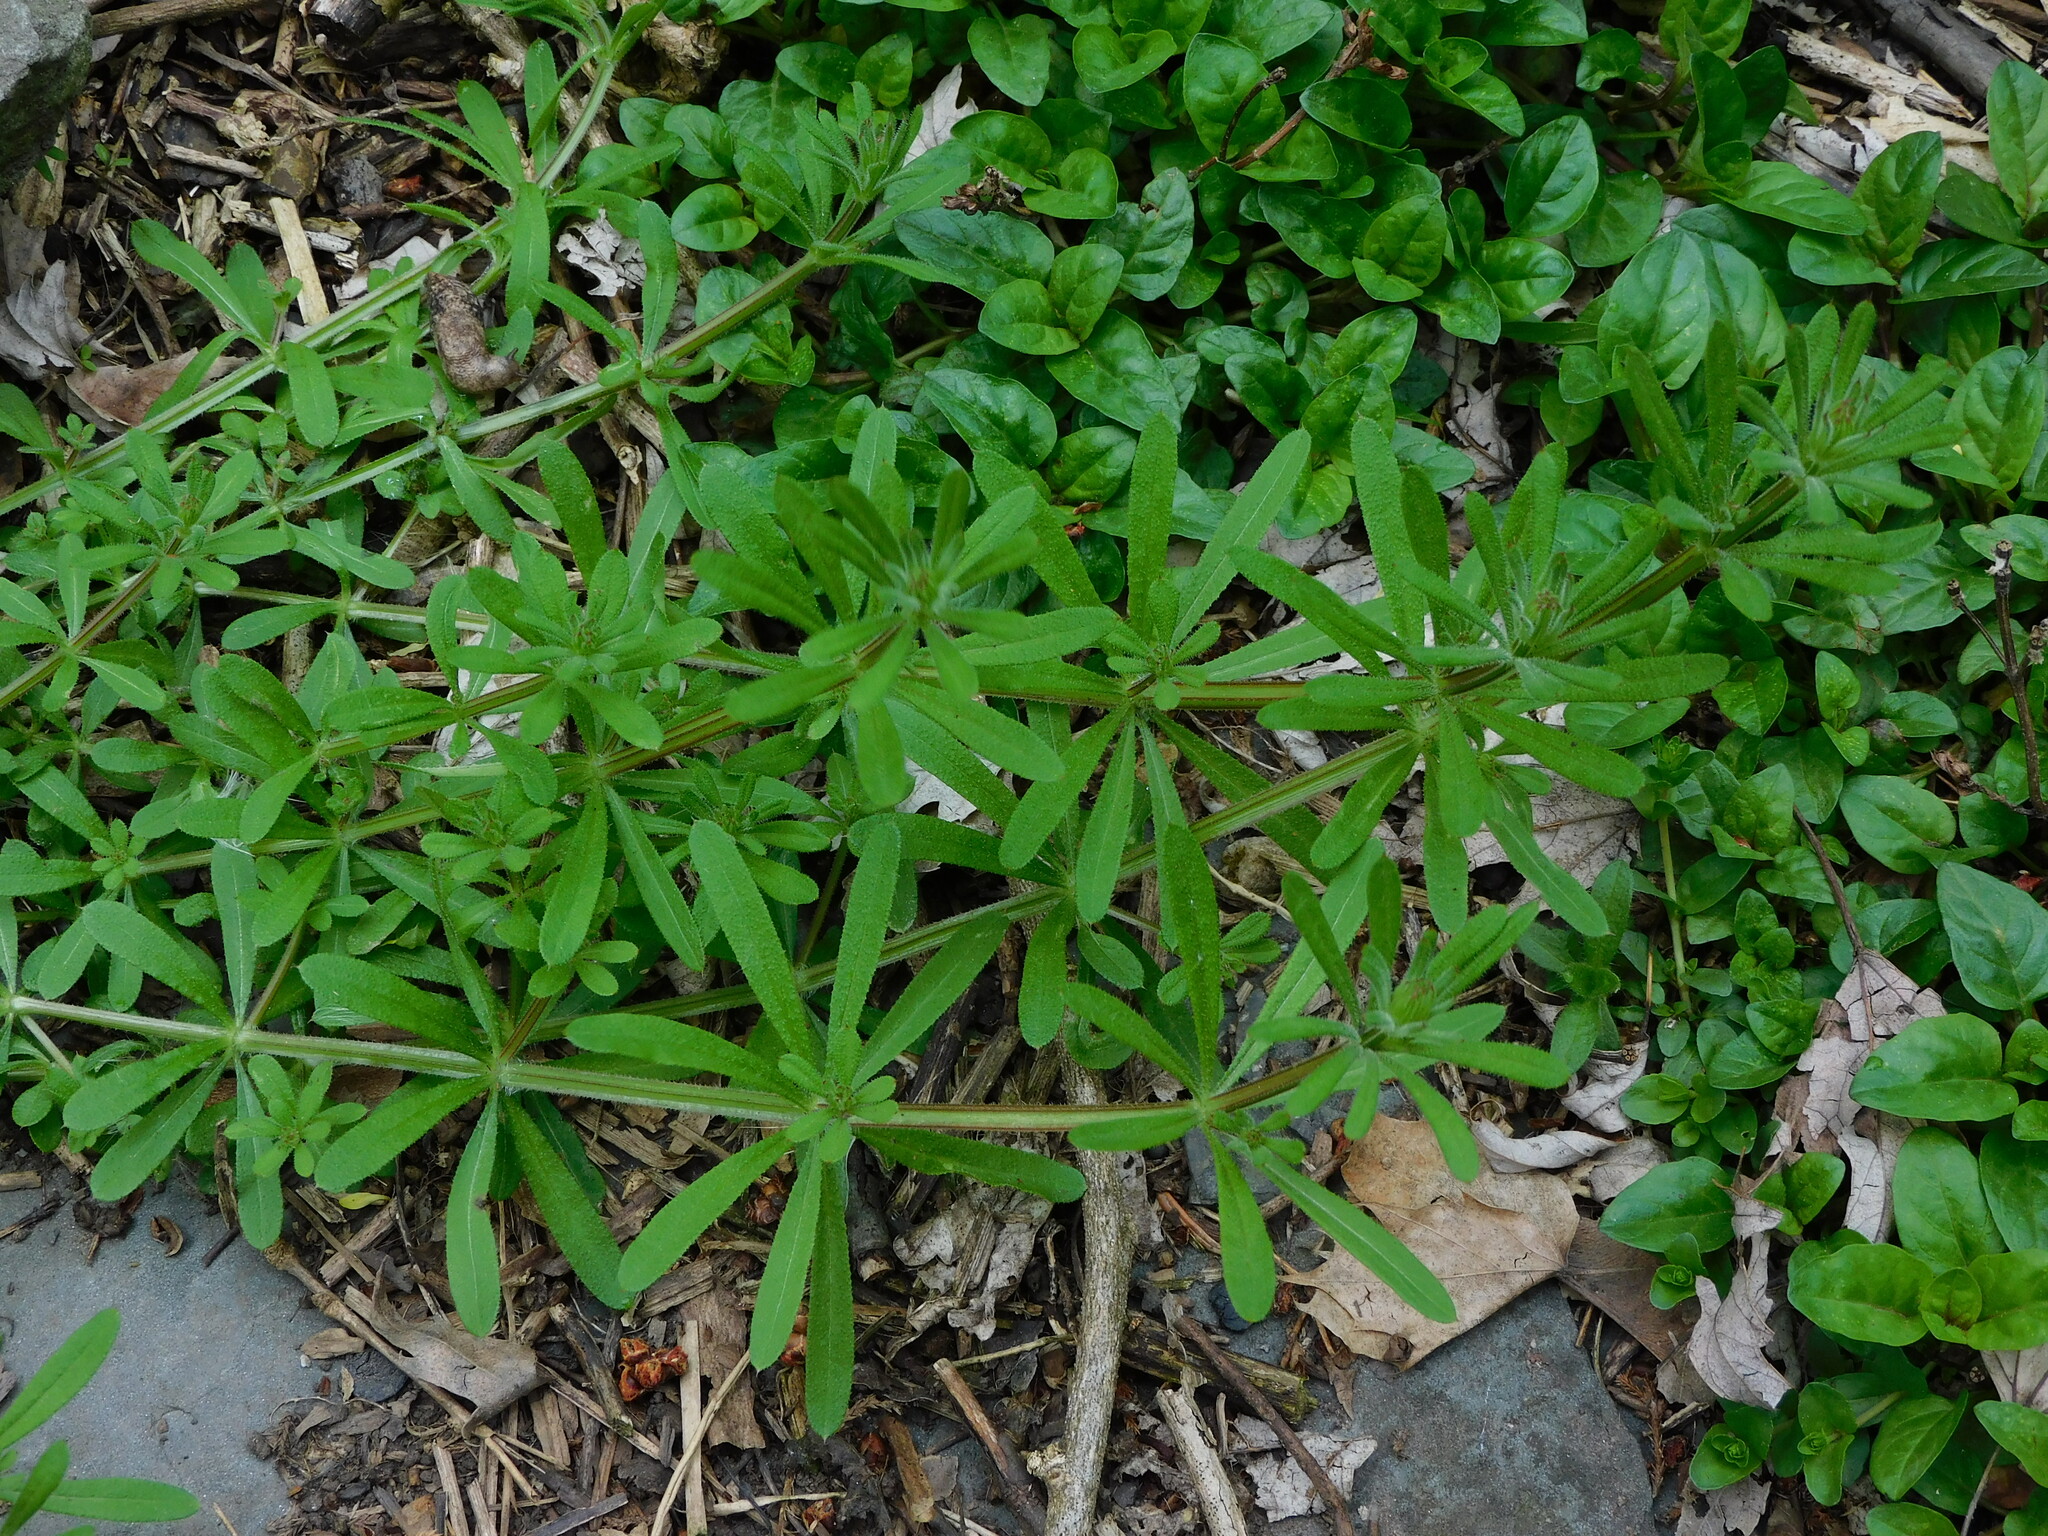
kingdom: Plantae
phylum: Tracheophyta
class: Magnoliopsida
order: Gentianales
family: Rubiaceae
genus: Galium
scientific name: Galium aparine
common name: Cleavers
